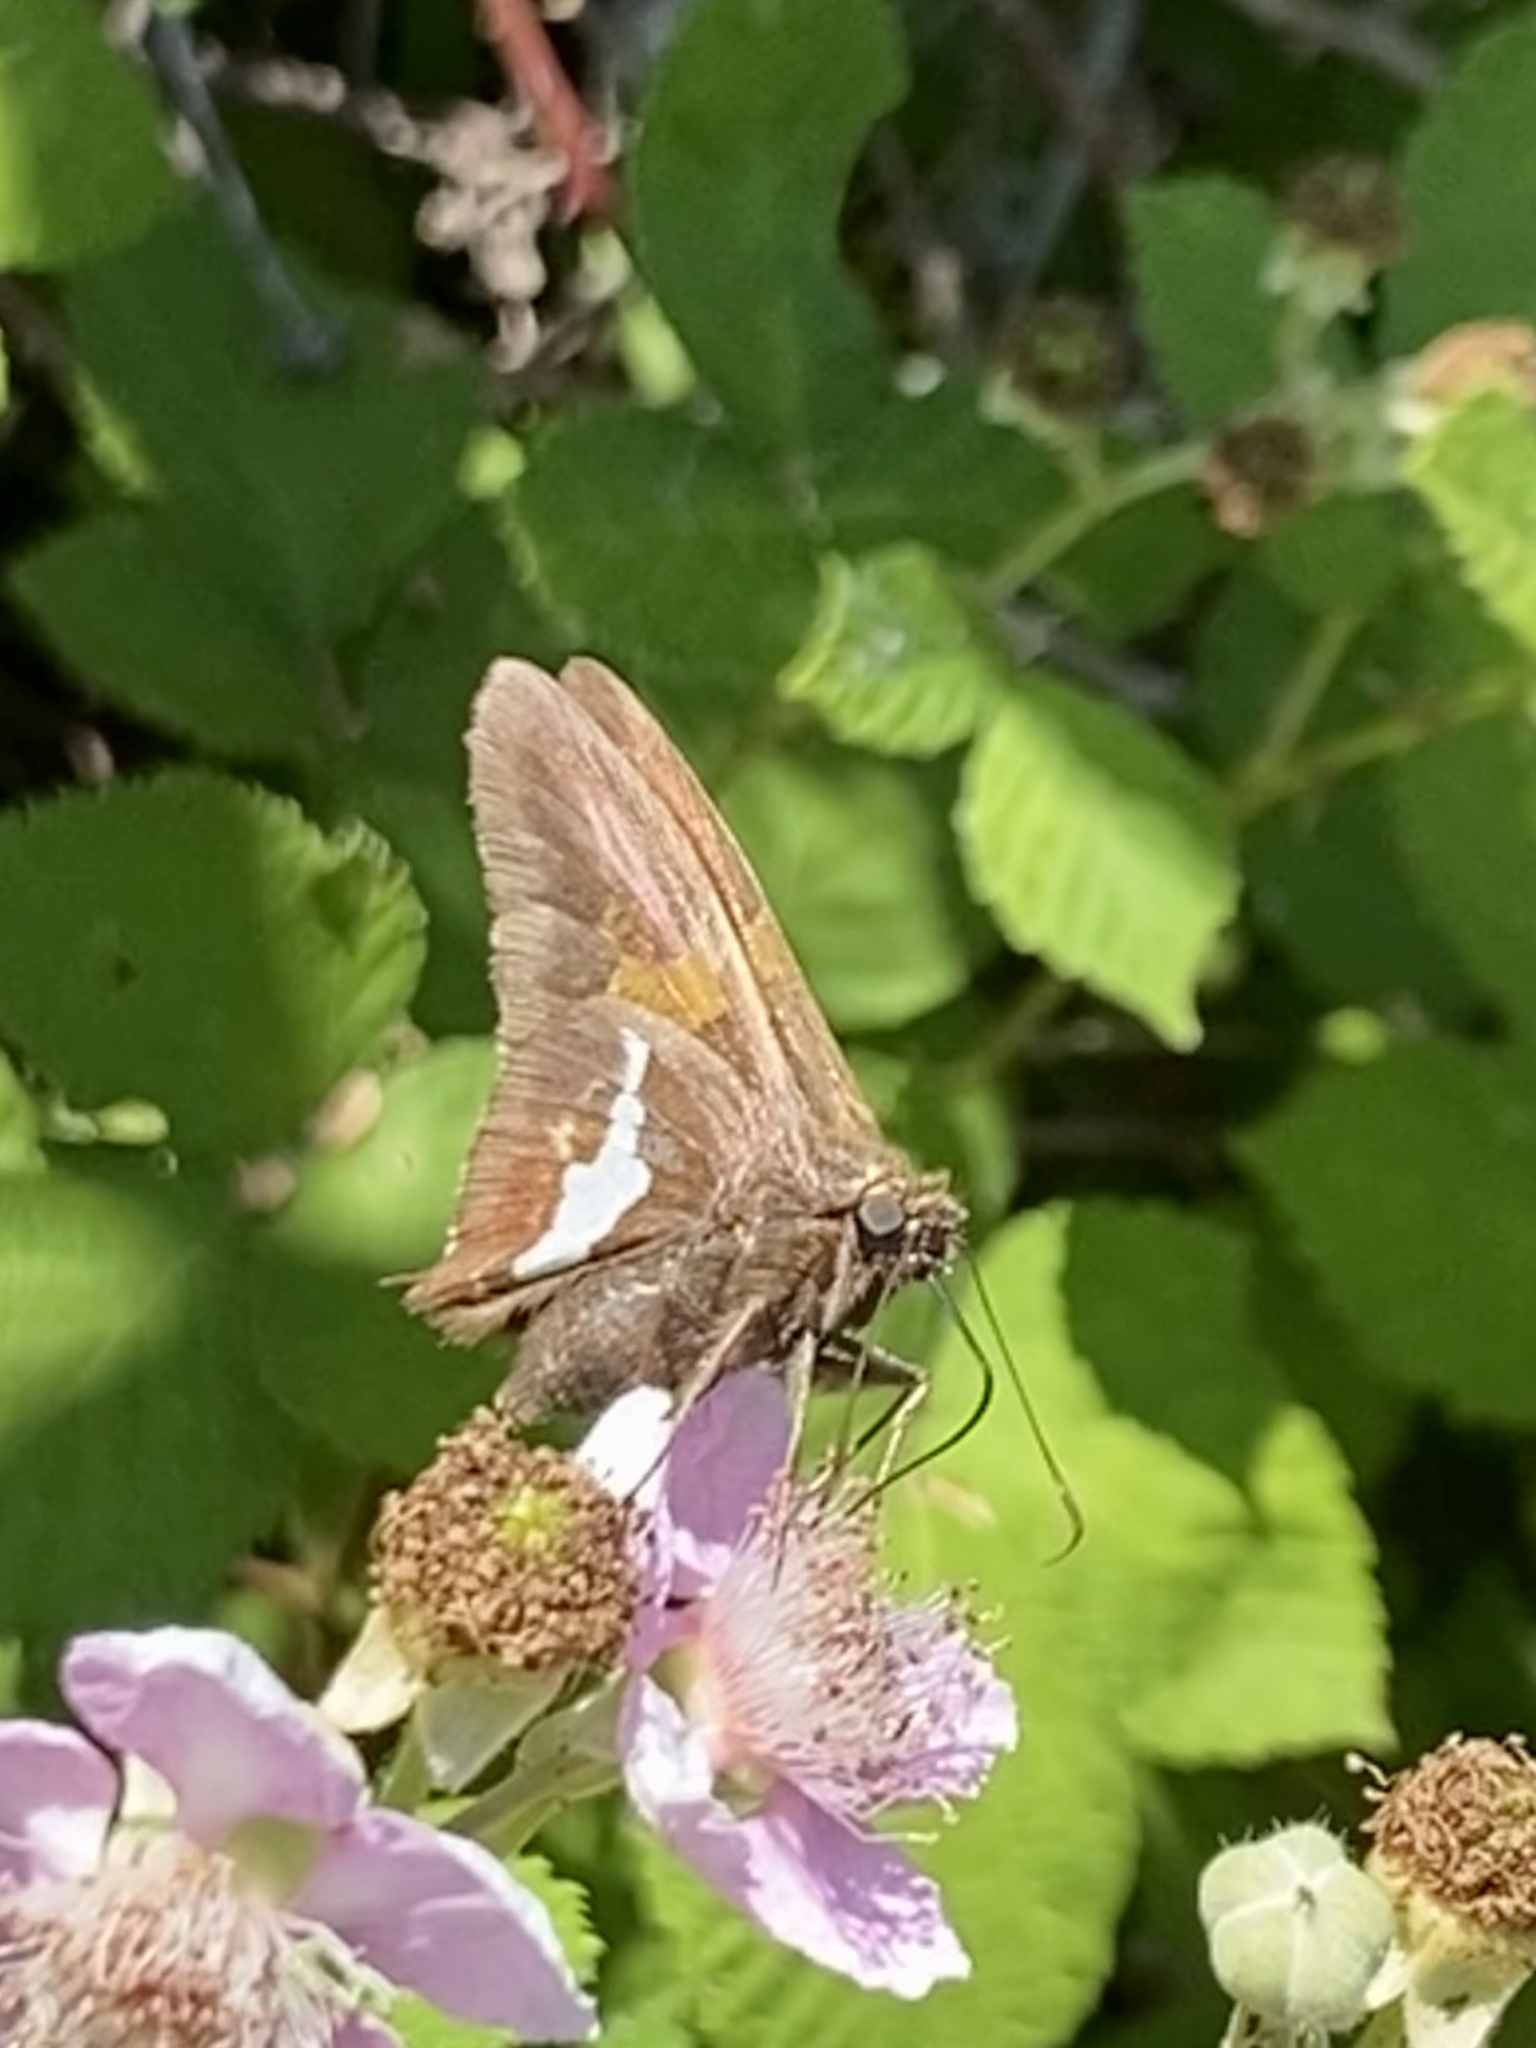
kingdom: Animalia
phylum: Arthropoda
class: Insecta
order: Lepidoptera
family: Hesperiidae
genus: Epargyreus
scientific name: Epargyreus clarus
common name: Silver-spotted skipper
